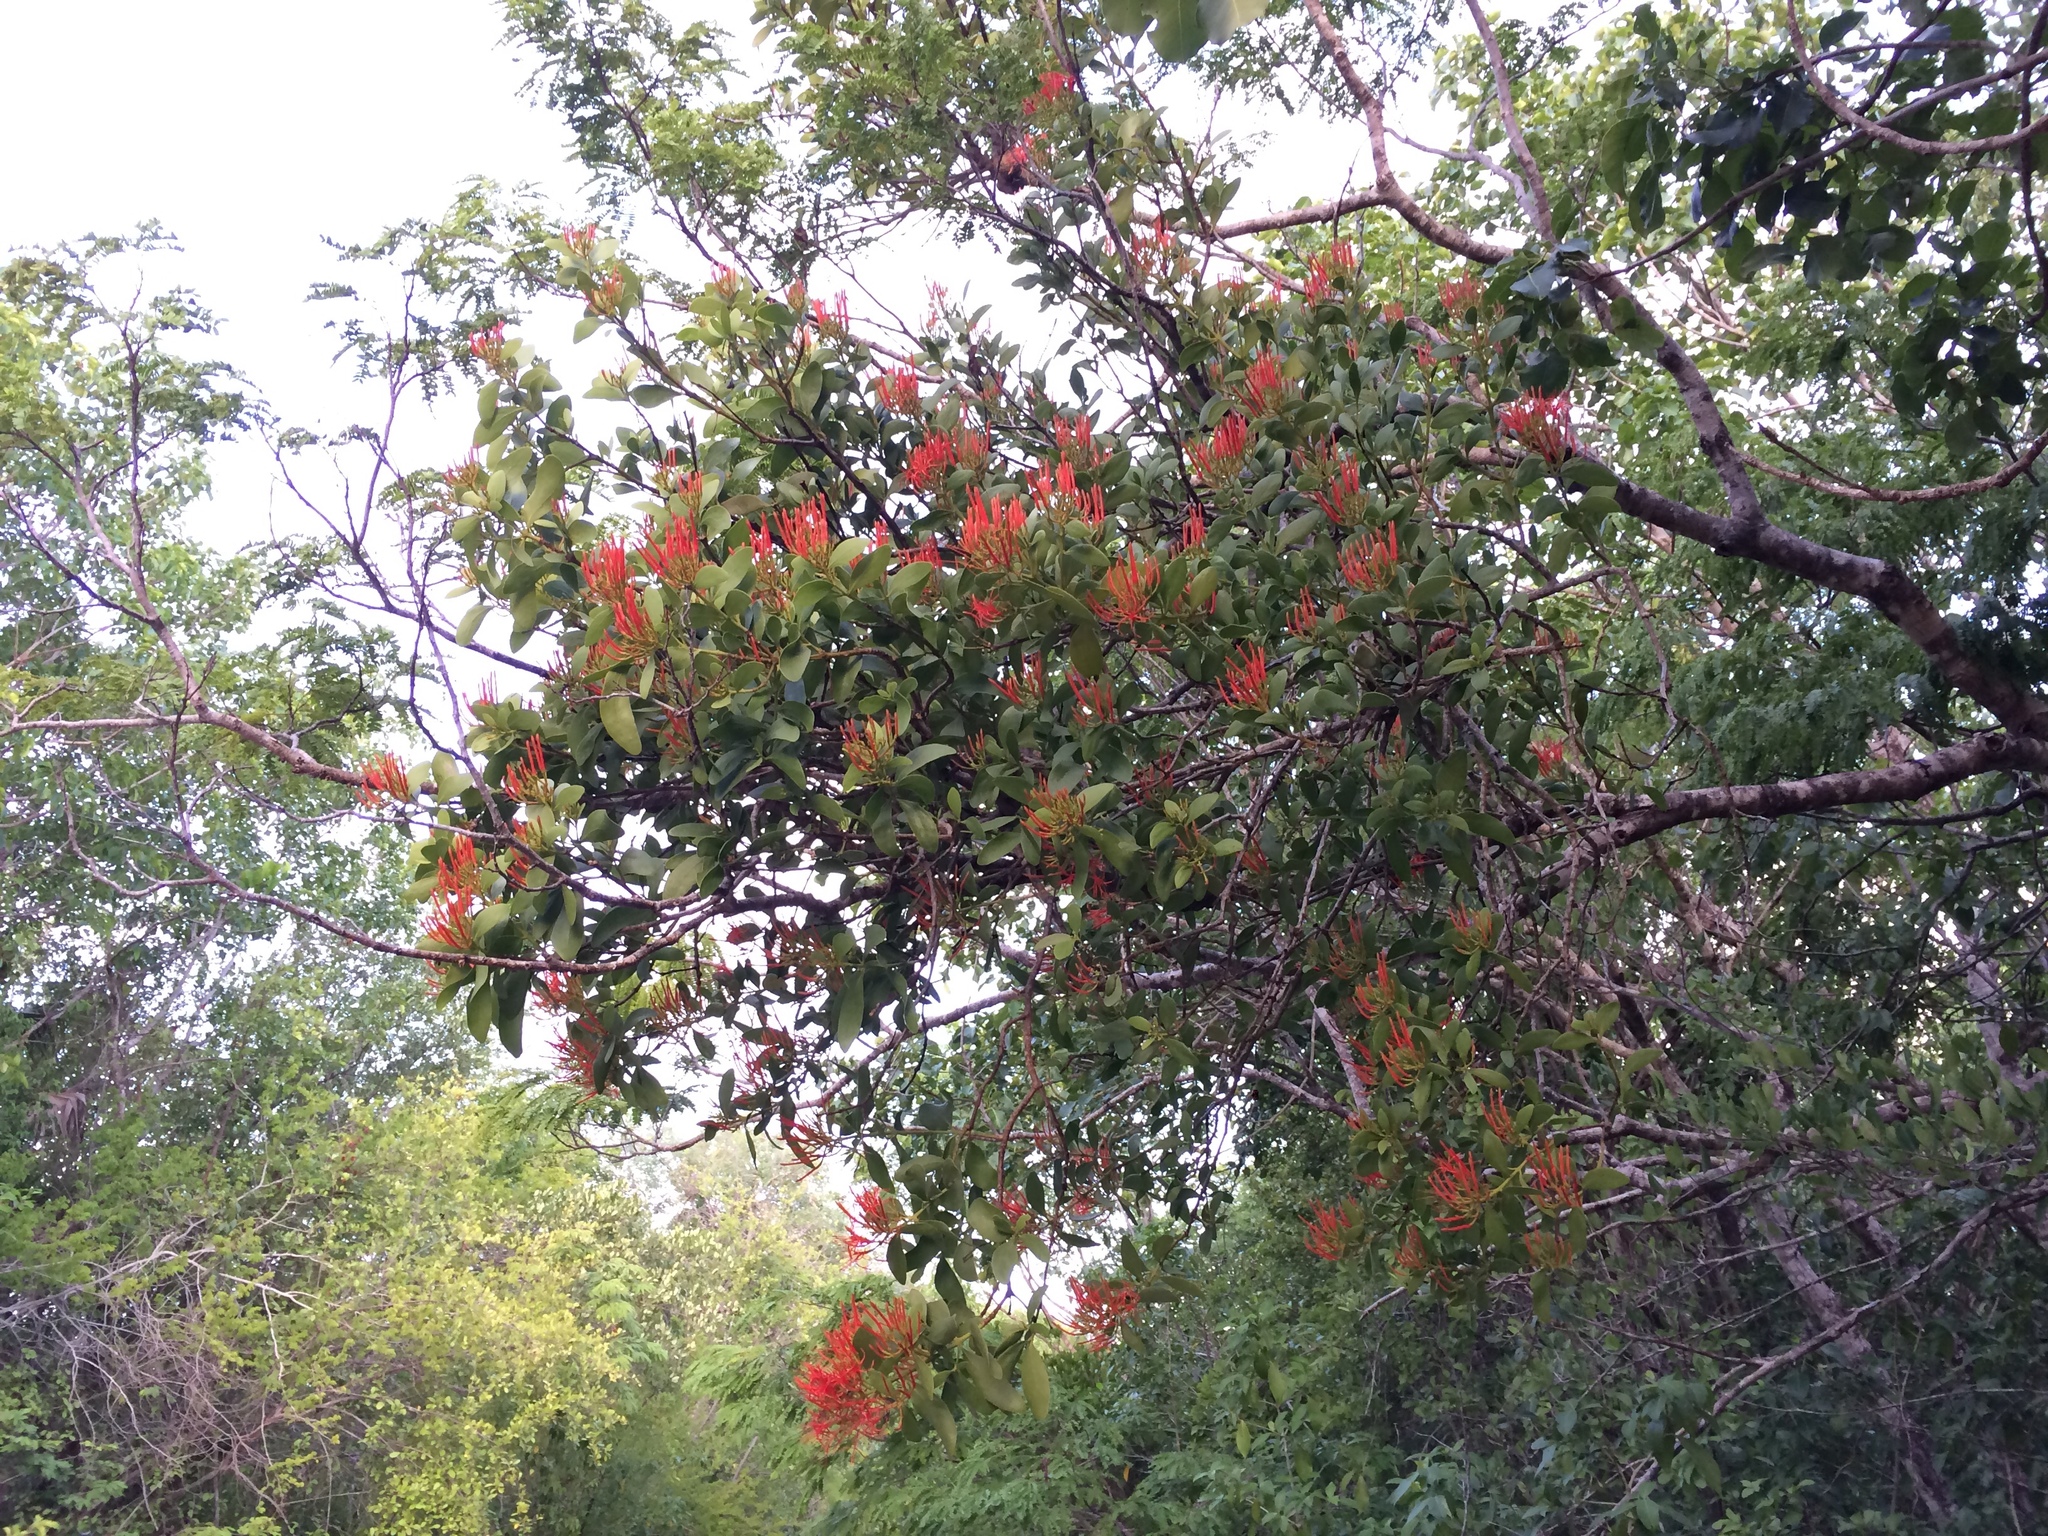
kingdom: Plantae
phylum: Tracheophyta
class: Magnoliopsida
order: Santalales
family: Loranthaceae
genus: Psittacanthus
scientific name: Psittacanthus schiedeanus
